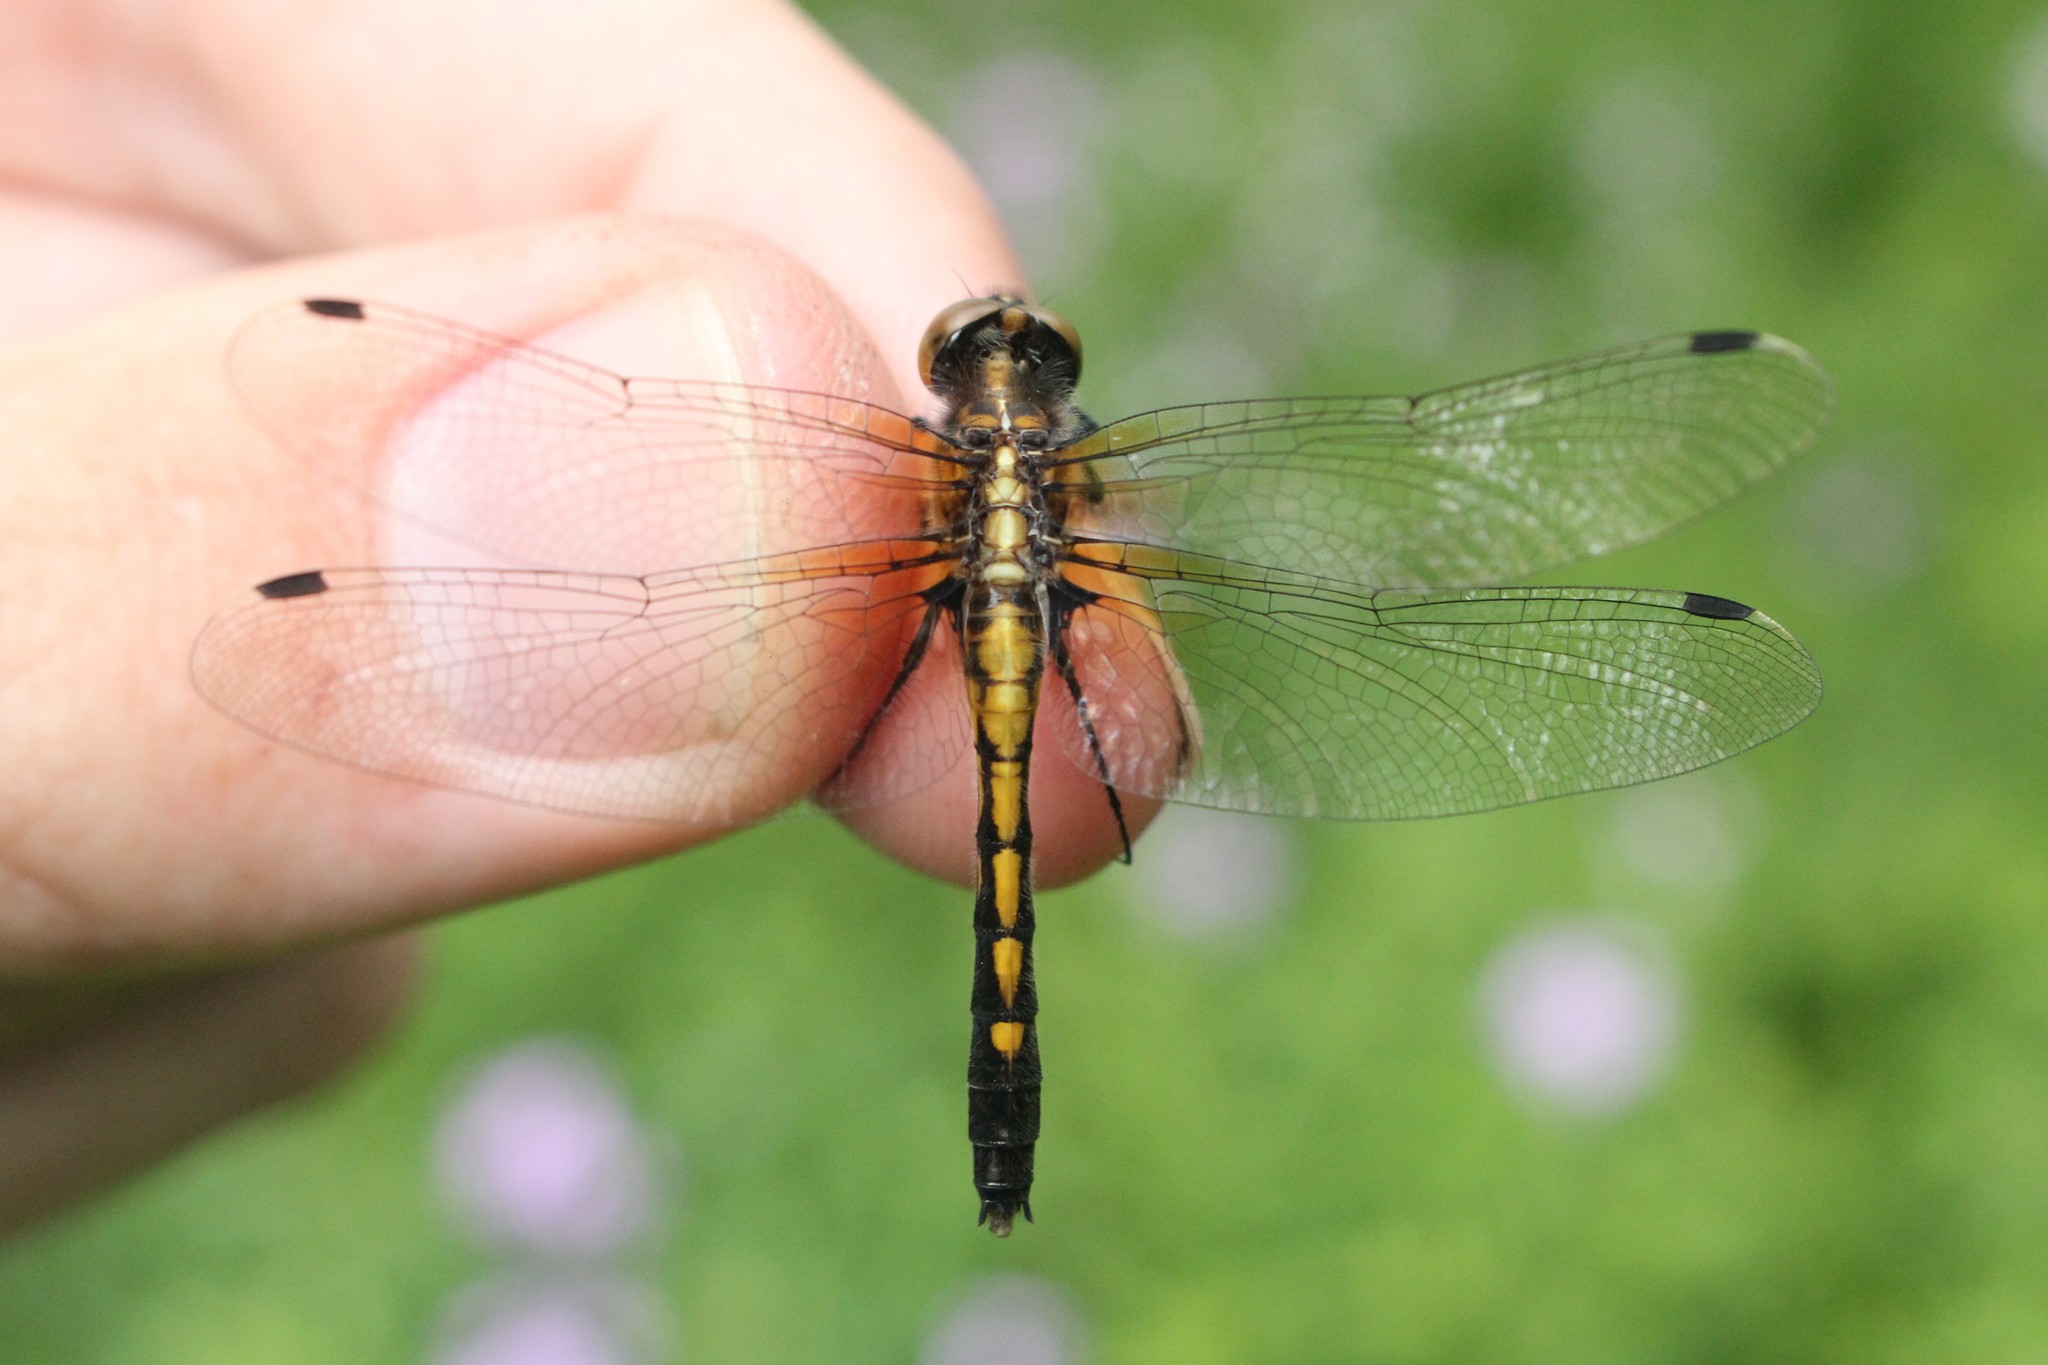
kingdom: Animalia
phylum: Arthropoda
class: Insecta
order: Odonata
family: Libellulidae
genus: Leucorrhinia
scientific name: Leucorrhinia intacta
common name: Dot-tailed whiteface
